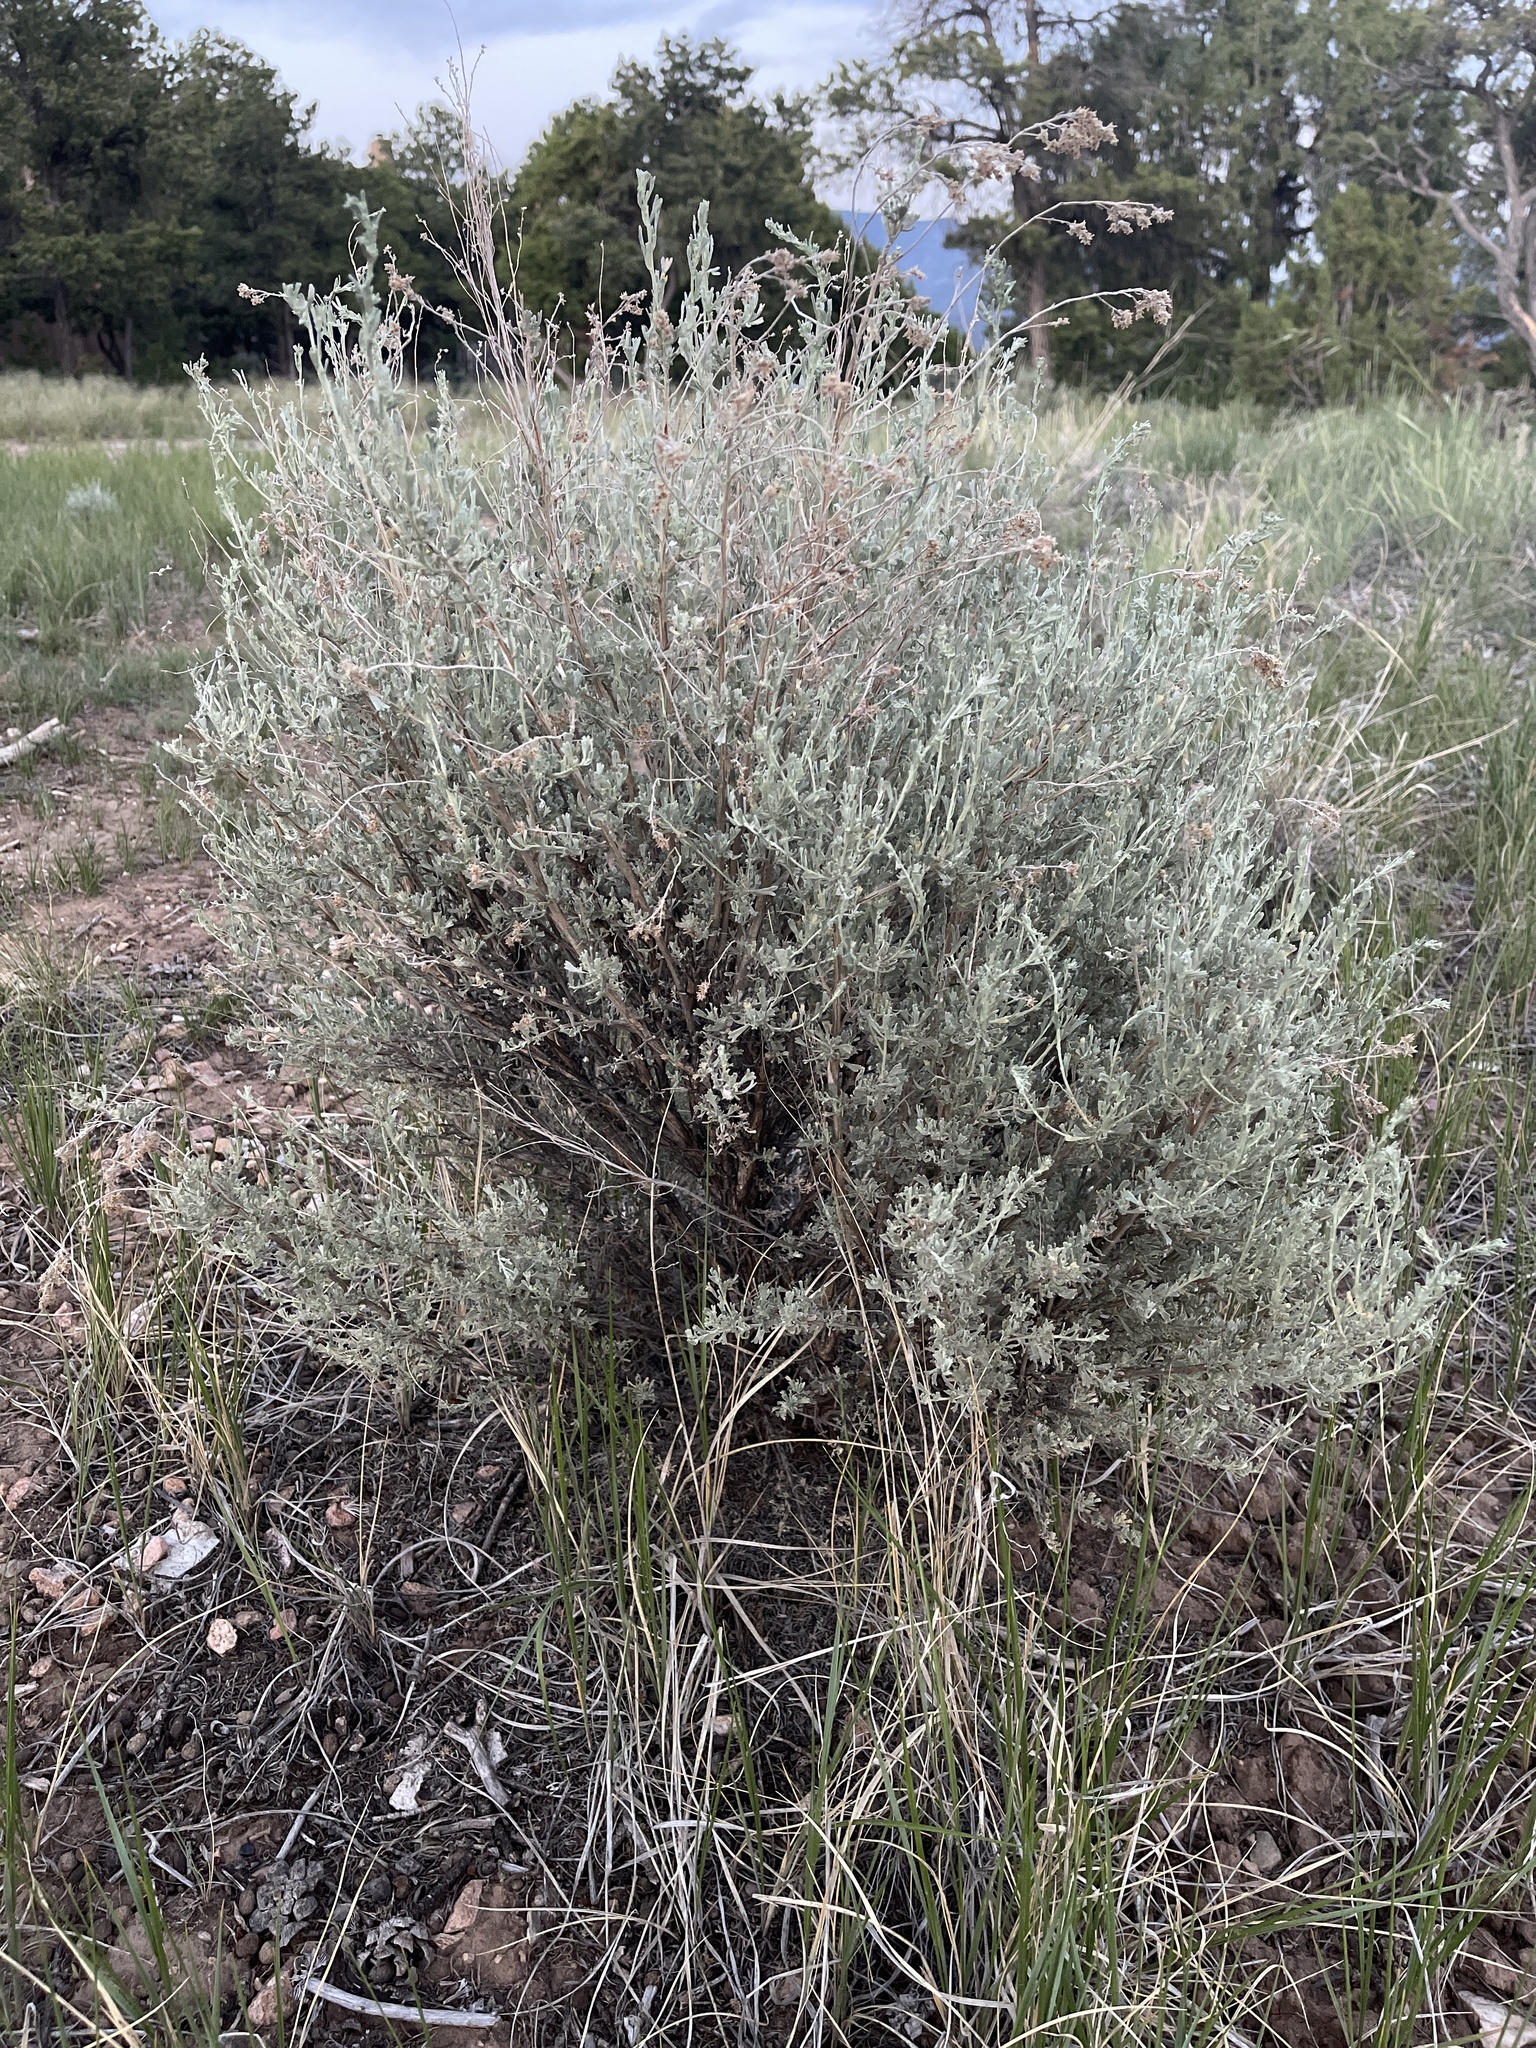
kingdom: Plantae
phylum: Tracheophyta
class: Magnoliopsida
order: Asterales
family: Asteraceae
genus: Artemisia
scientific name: Artemisia tridentata
